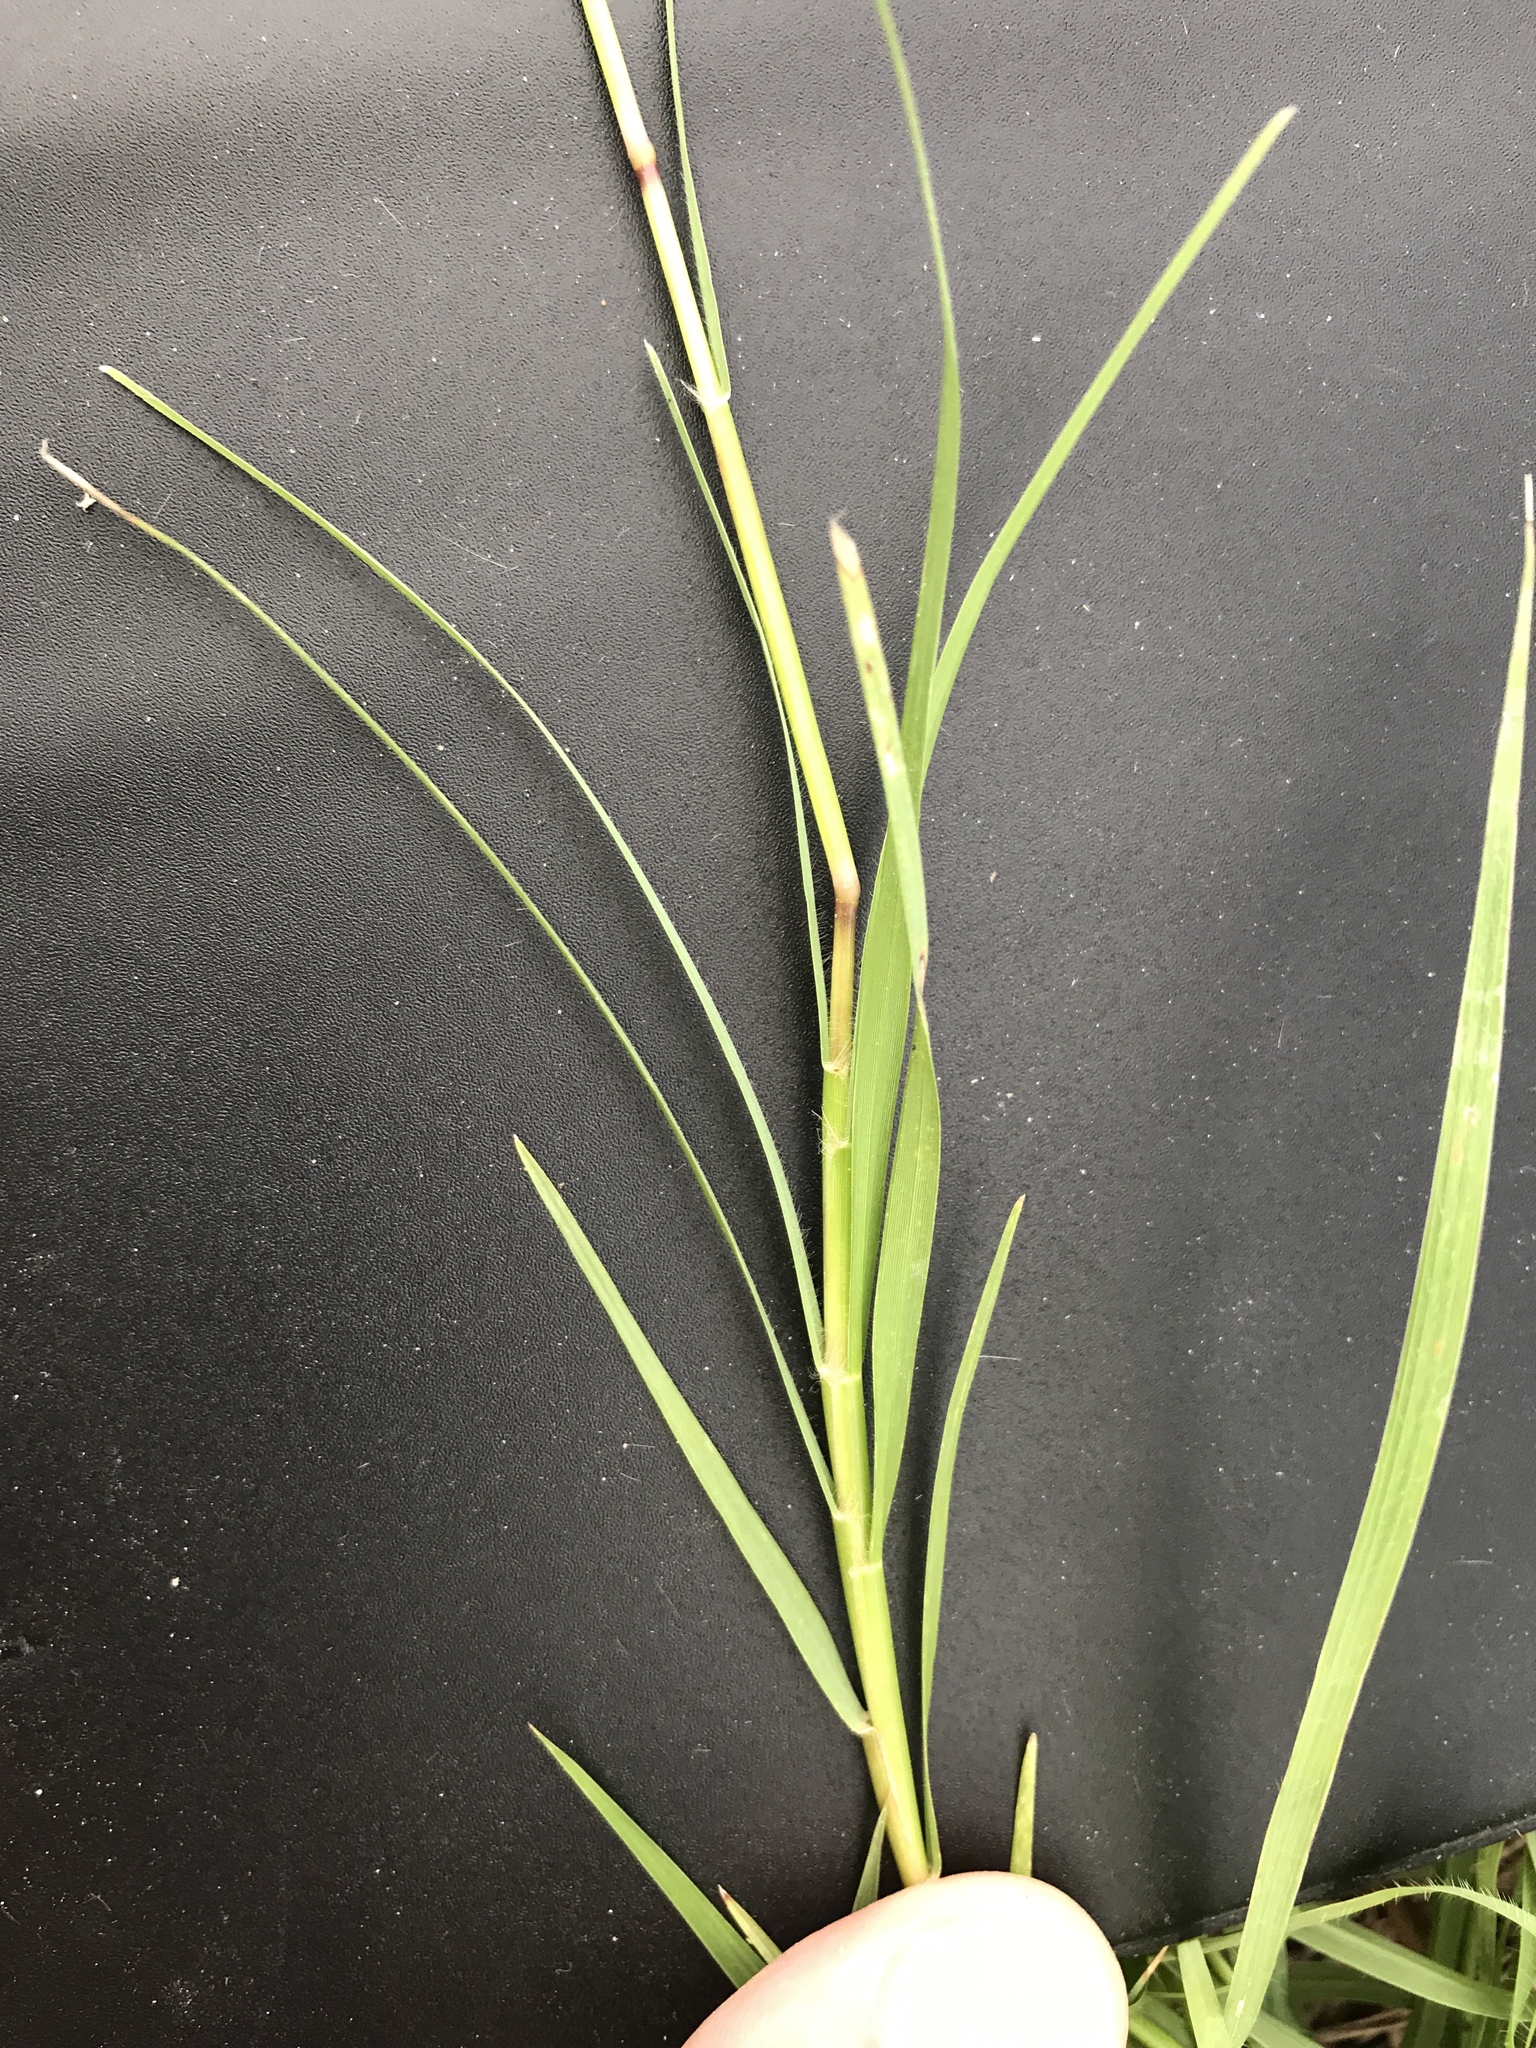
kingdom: Plantae
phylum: Tracheophyta
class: Liliopsida
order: Poales
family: Poaceae
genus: Cynodon
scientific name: Cynodon dactylon
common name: Bermuda grass
